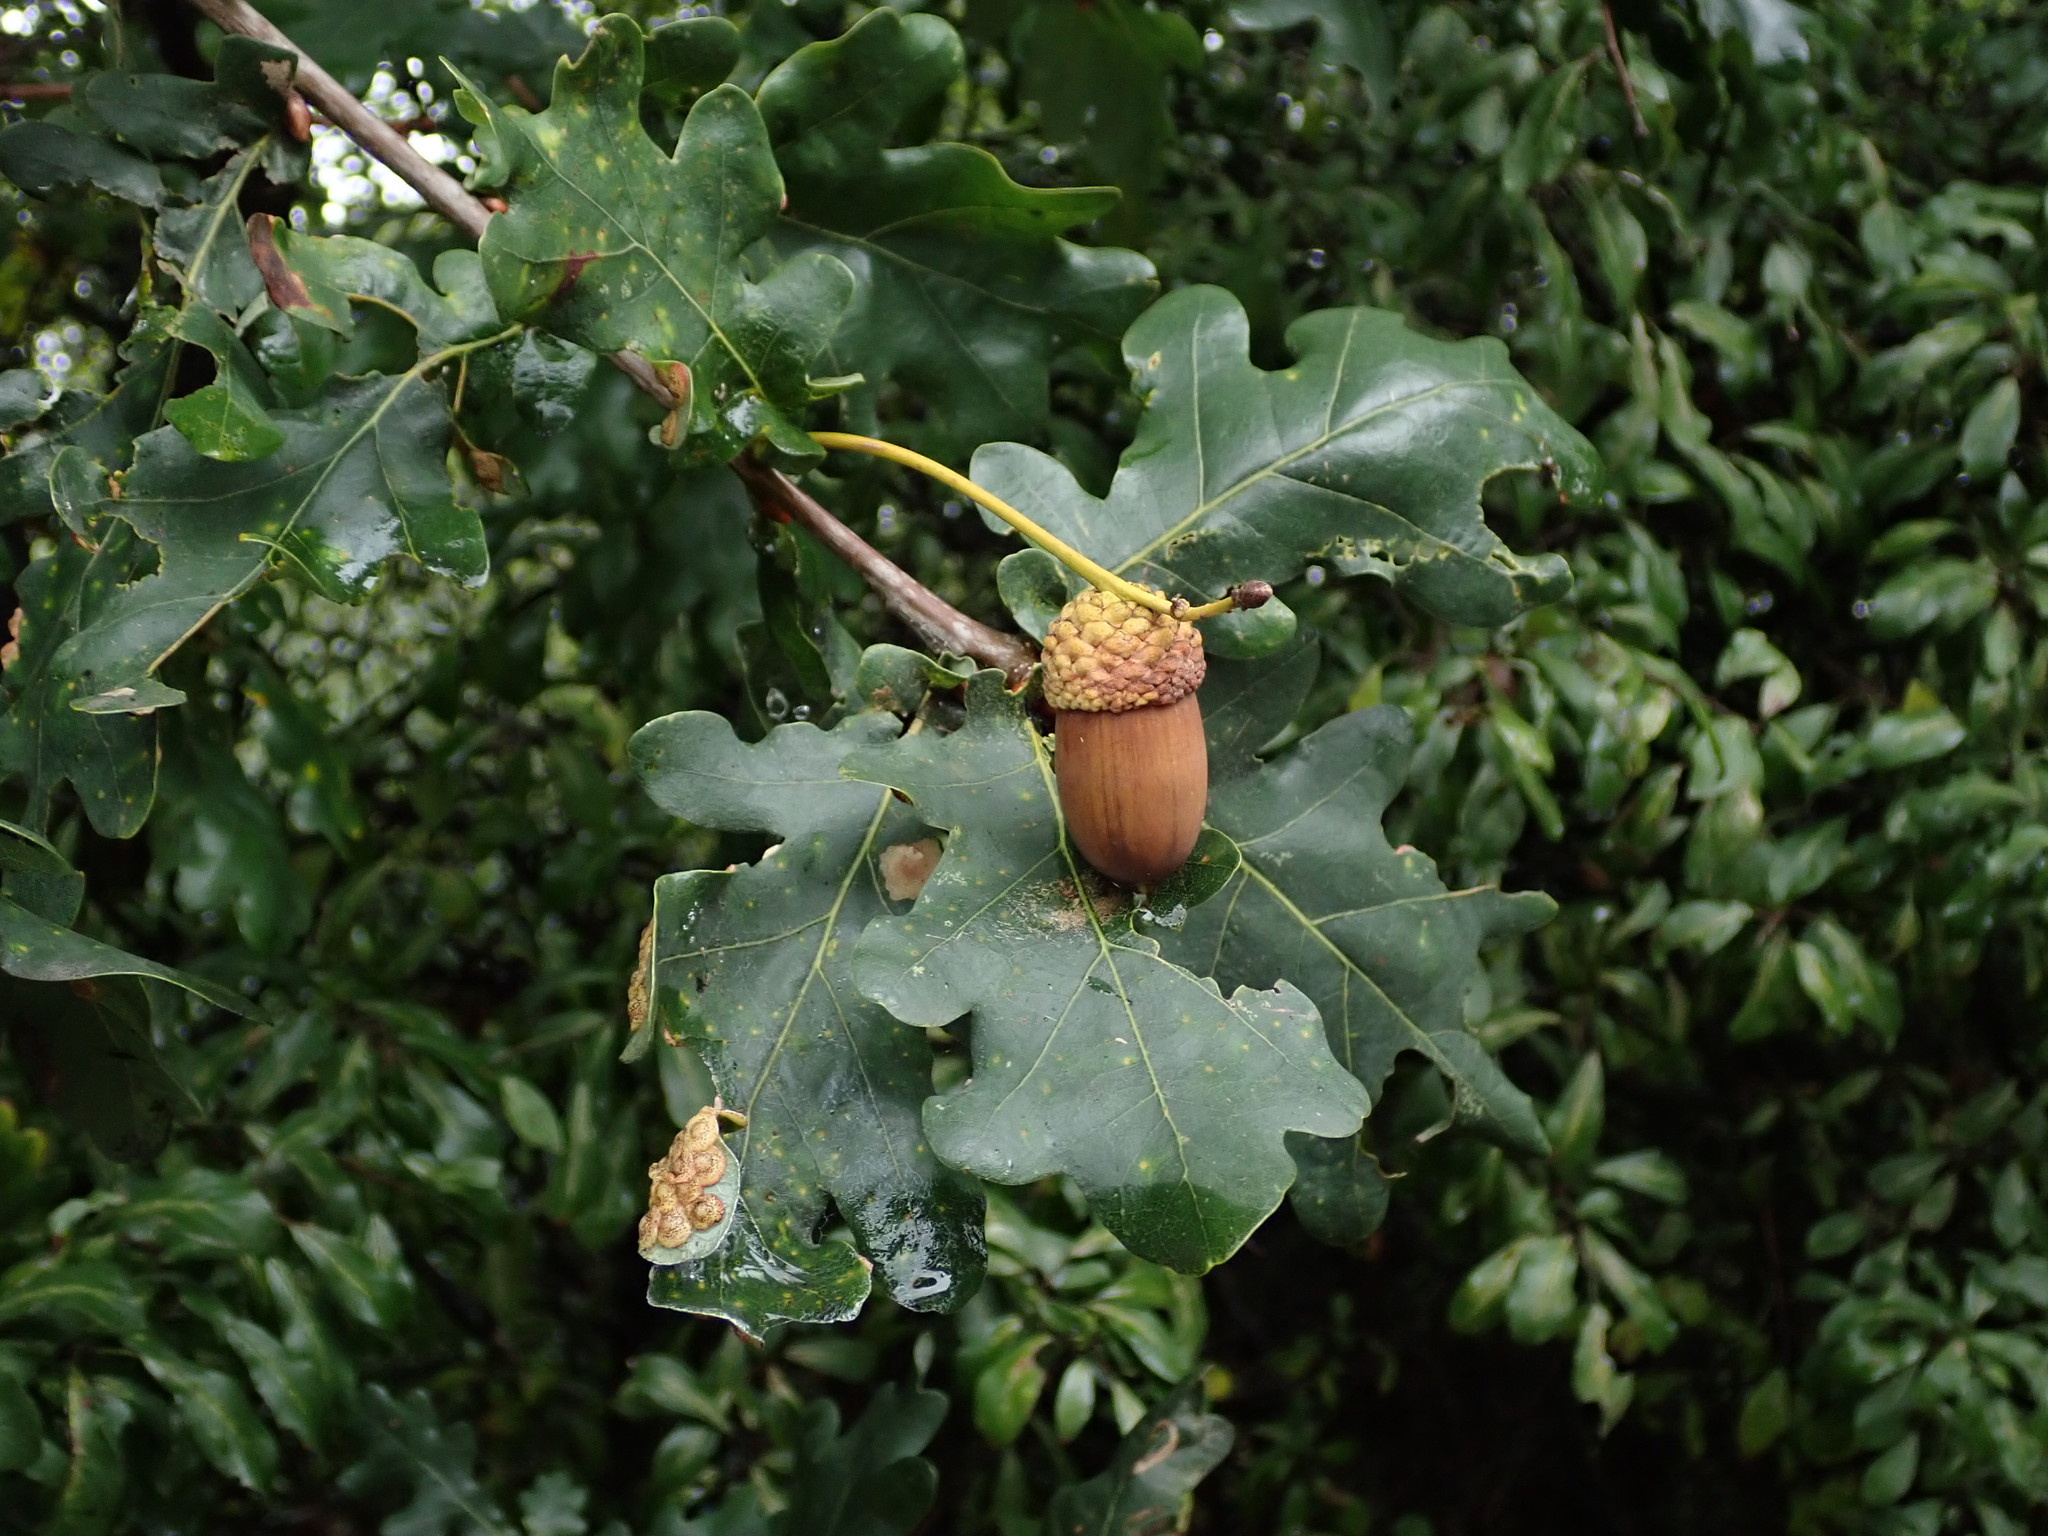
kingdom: Plantae
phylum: Tracheophyta
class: Magnoliopsida
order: Fagales
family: Fagaceae
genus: Quercus
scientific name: Quercus robur
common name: Pedunculate oak
